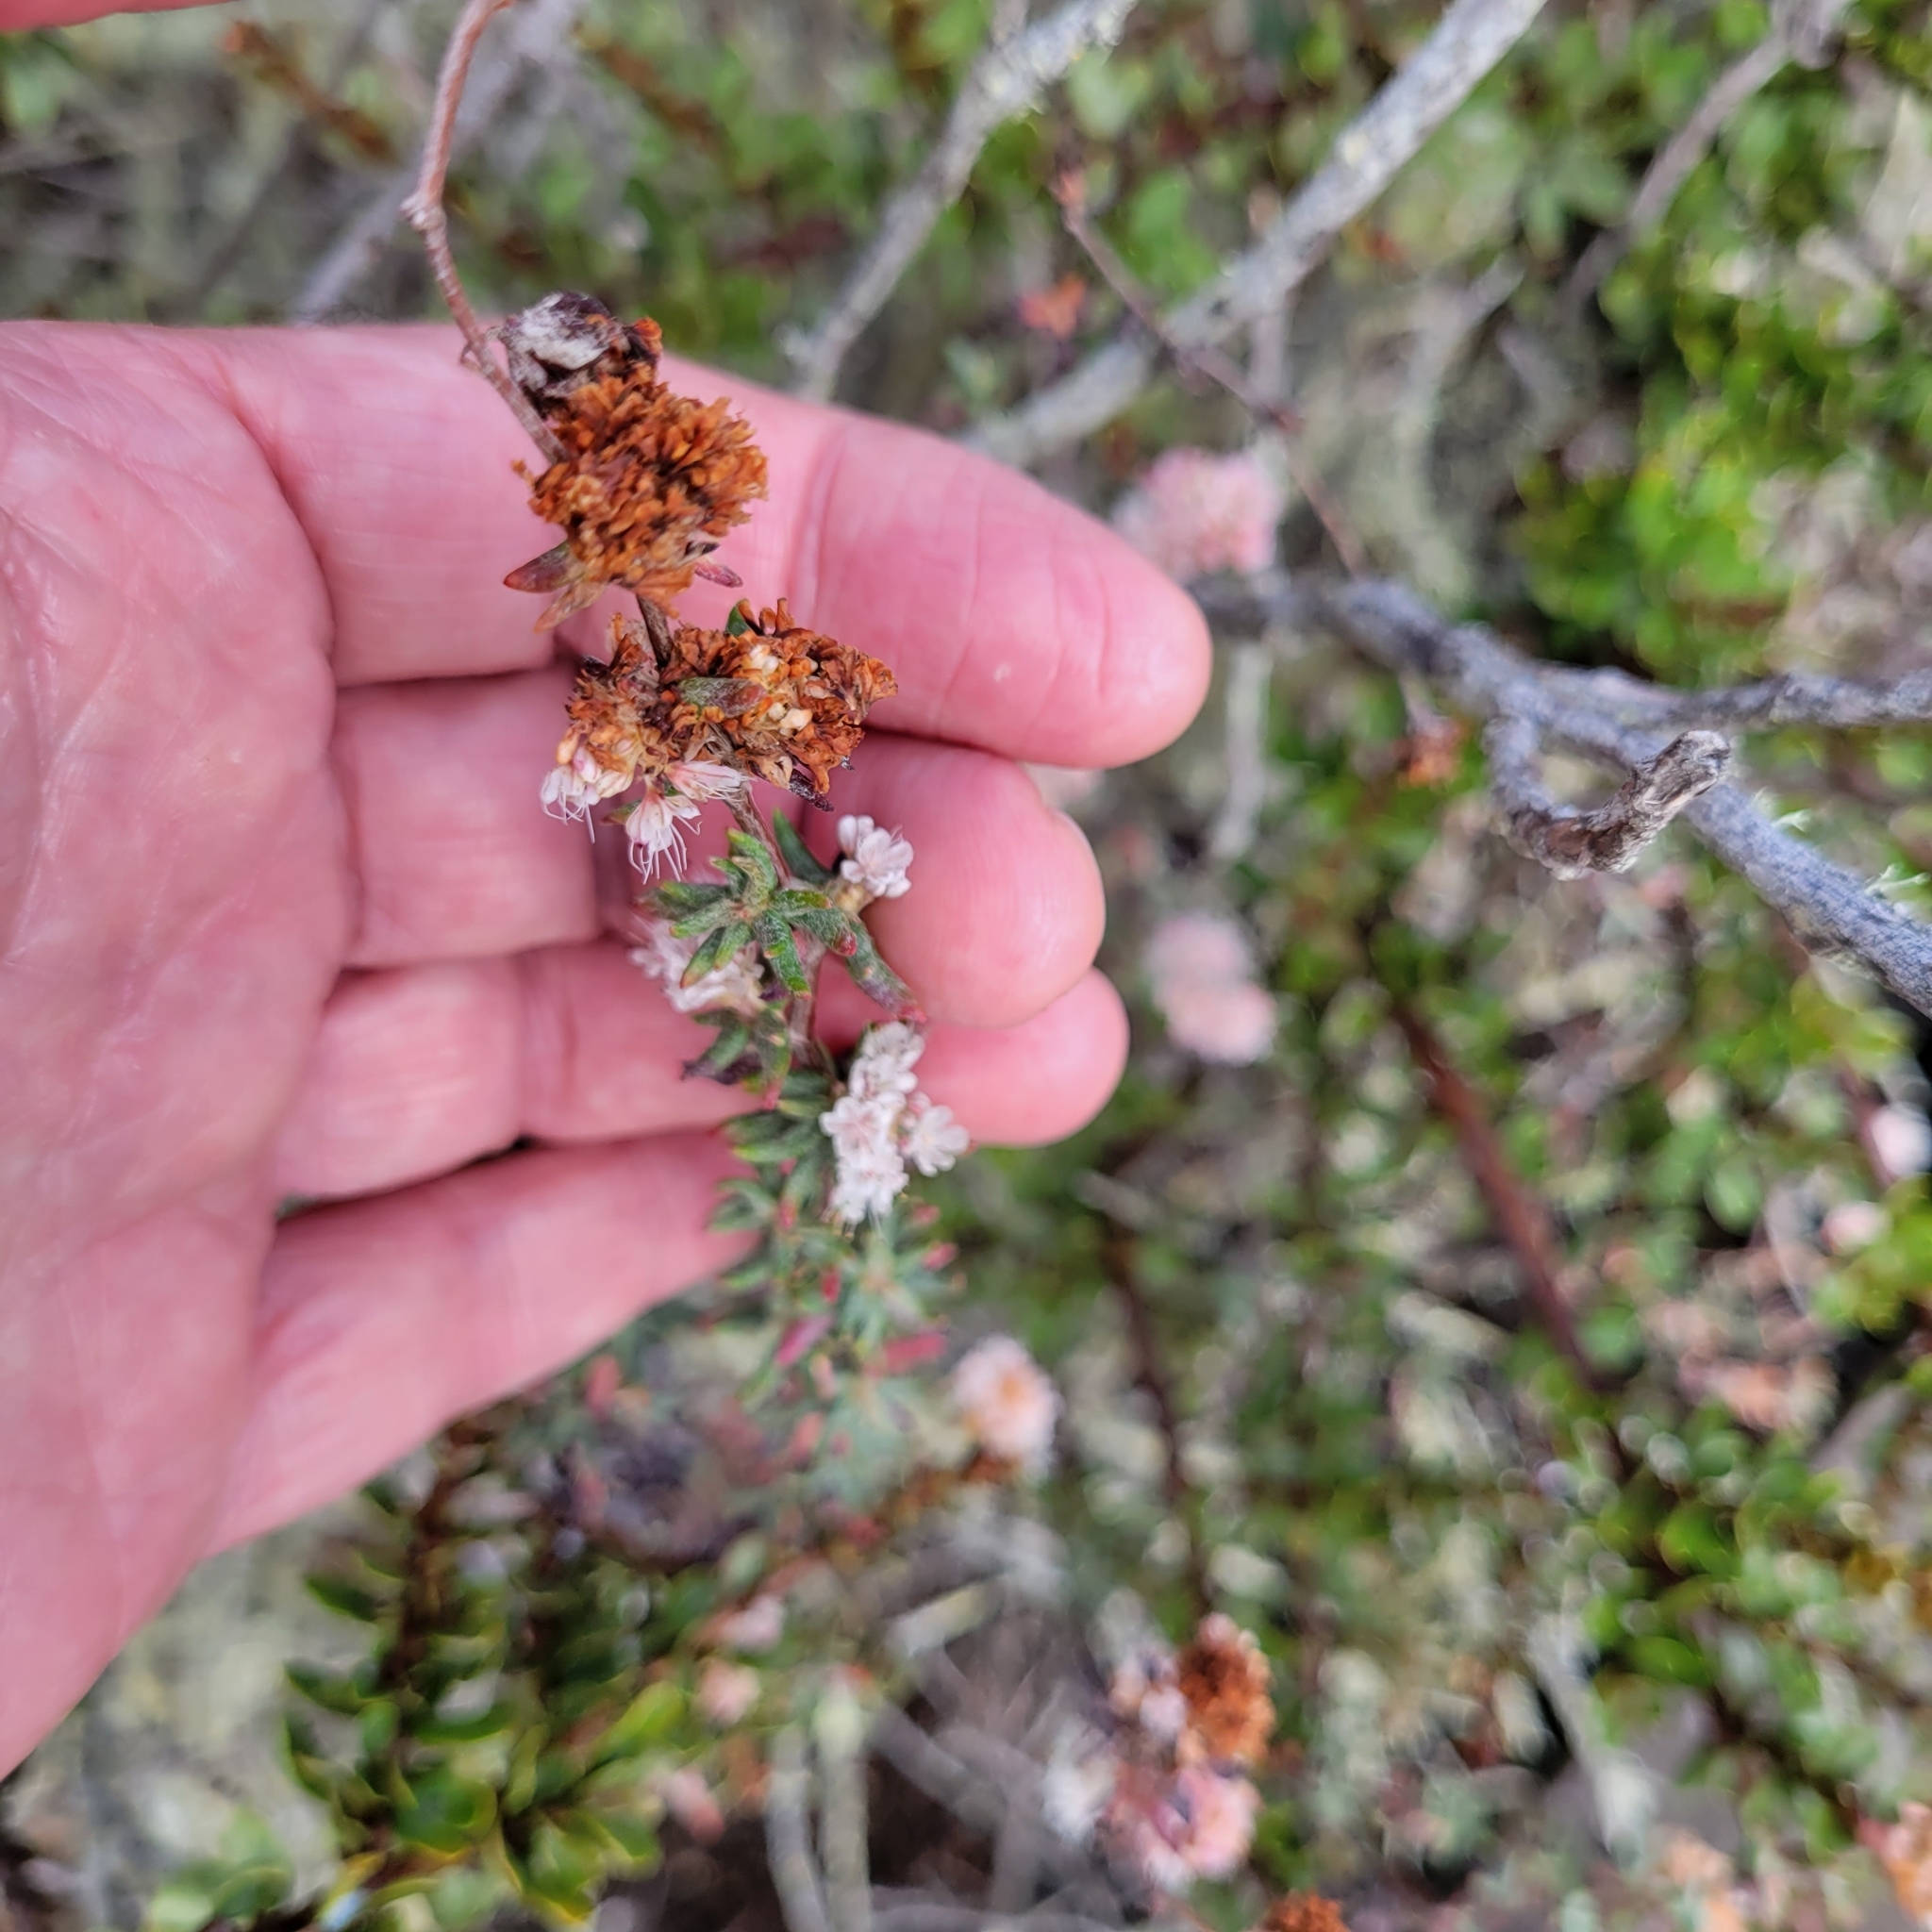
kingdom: Plantae
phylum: Tracheophyta
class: Magnoliopsida
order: Caryophyllales
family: Polygonaceae
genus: Eriogonum
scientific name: Eriogonum parvifolium
